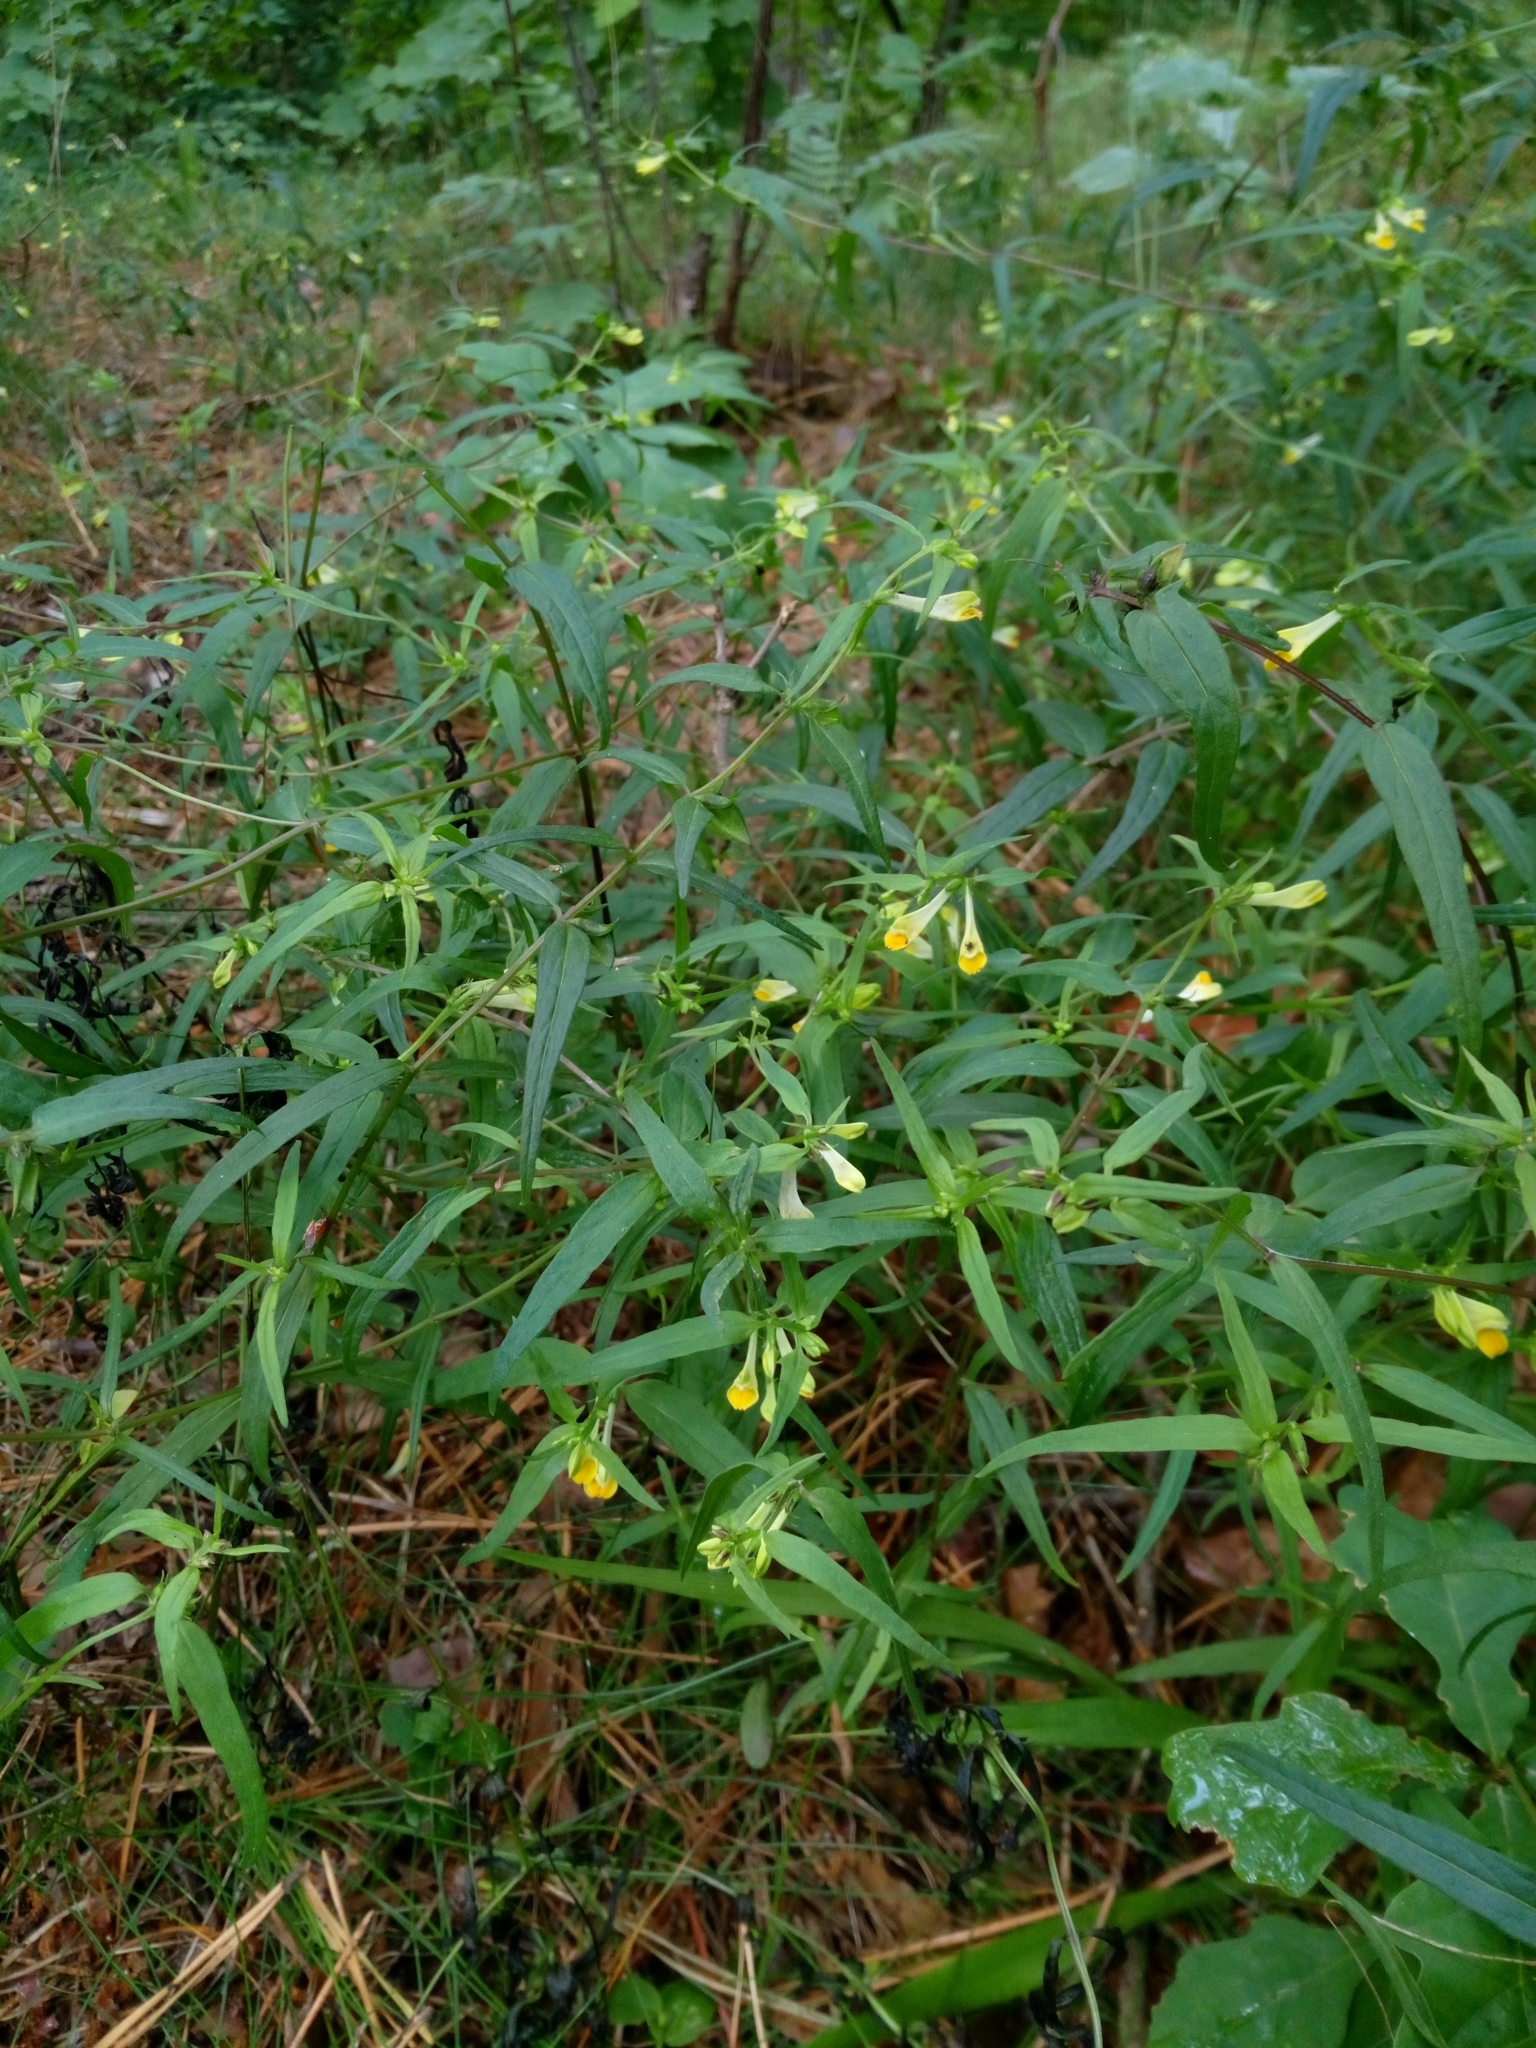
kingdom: Plantae
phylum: Tracheophyta
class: Magnoliopsida
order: Lamiales
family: Orobanchaceae
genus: Melampyrum
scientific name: Melampyrum pratense
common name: Common cow-wheat
